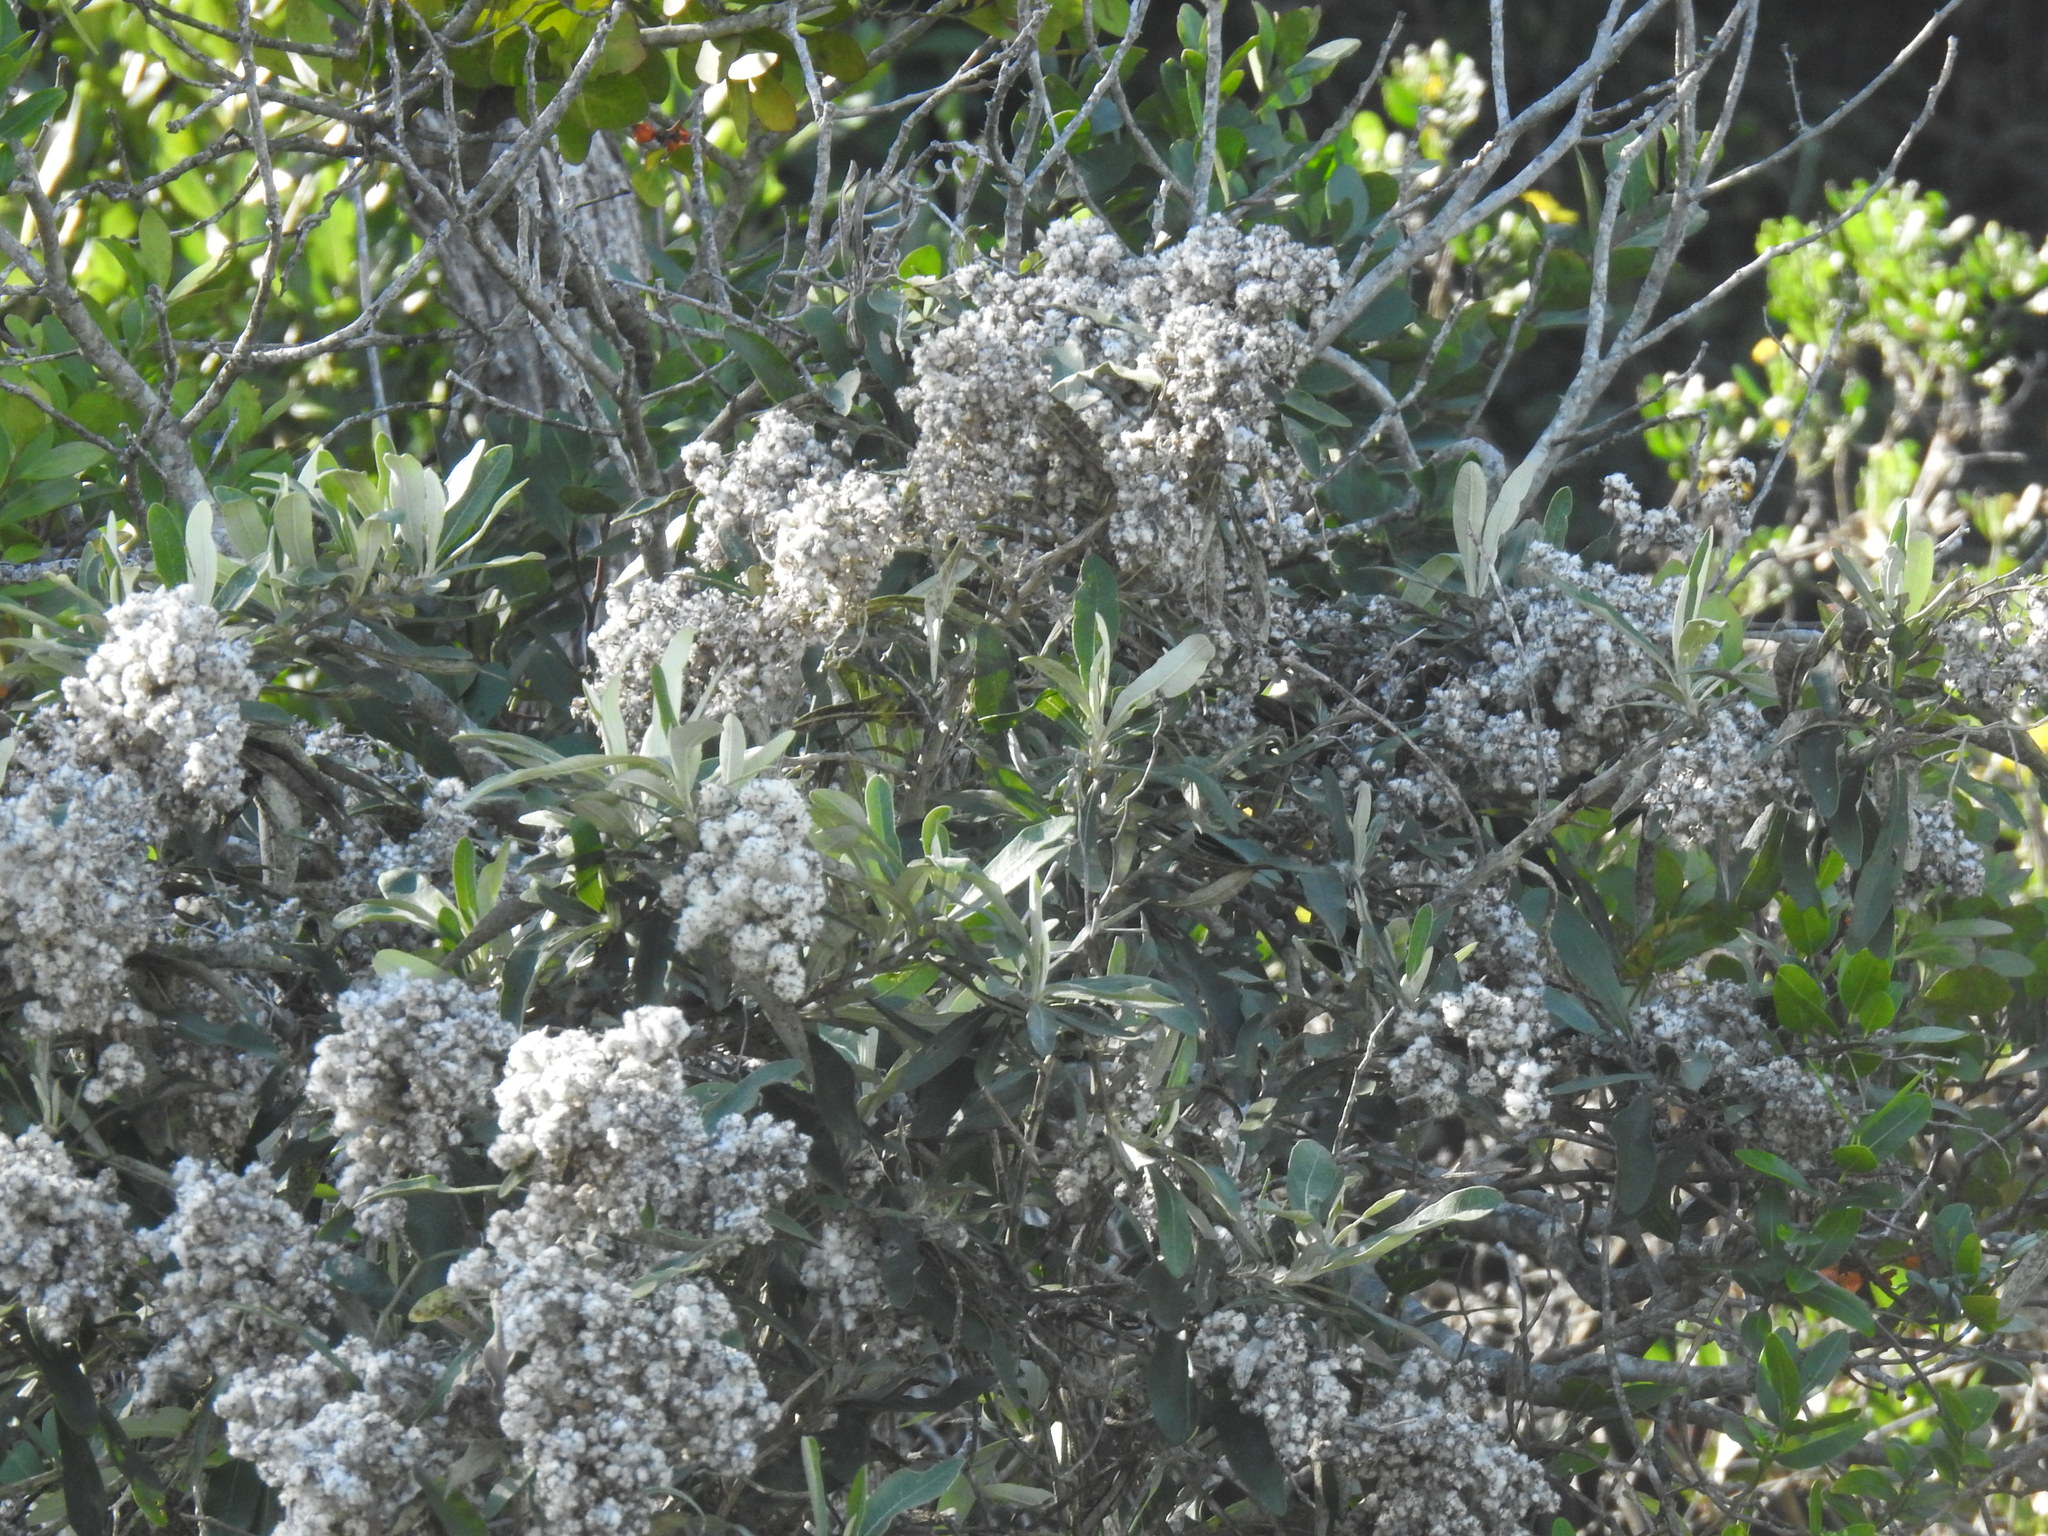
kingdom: Plantae
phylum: Tracheophyta
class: Magnoliopsida
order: Asterales
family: Asteraceae
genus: Tarchonanthus
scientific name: Tarchonanthus littoralis
